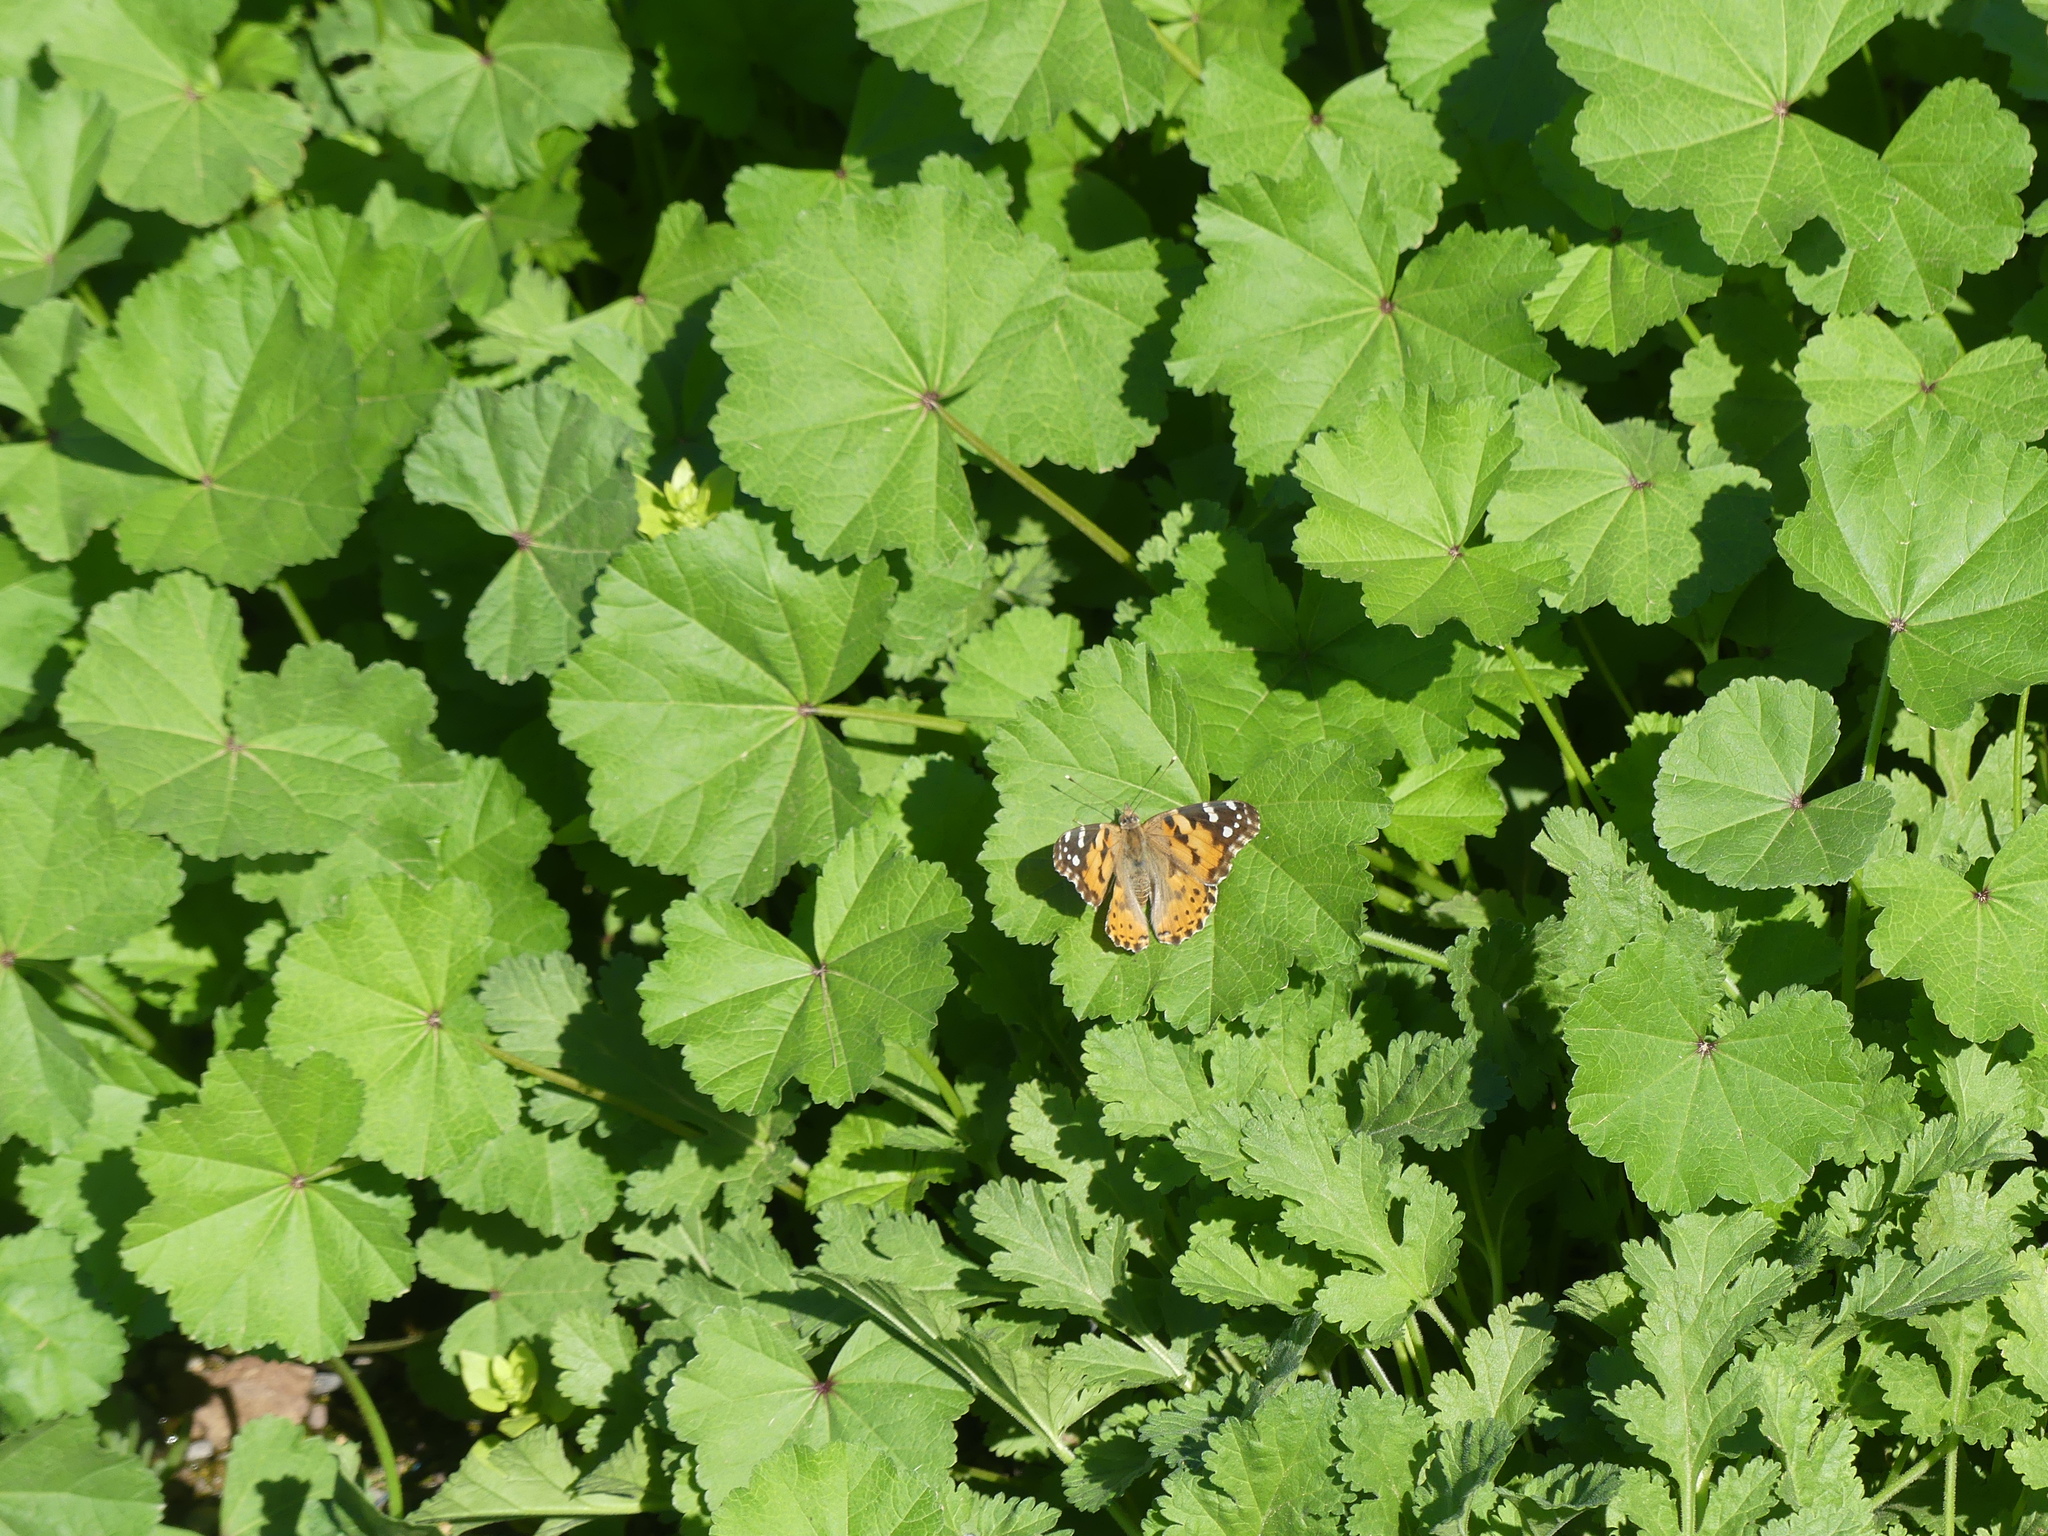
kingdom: Animalia
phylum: Arthropoda
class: Insecta
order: Lepidoptera
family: Nymphalidae
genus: Vanessa
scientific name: Vanessa cardui
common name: Painted lady
